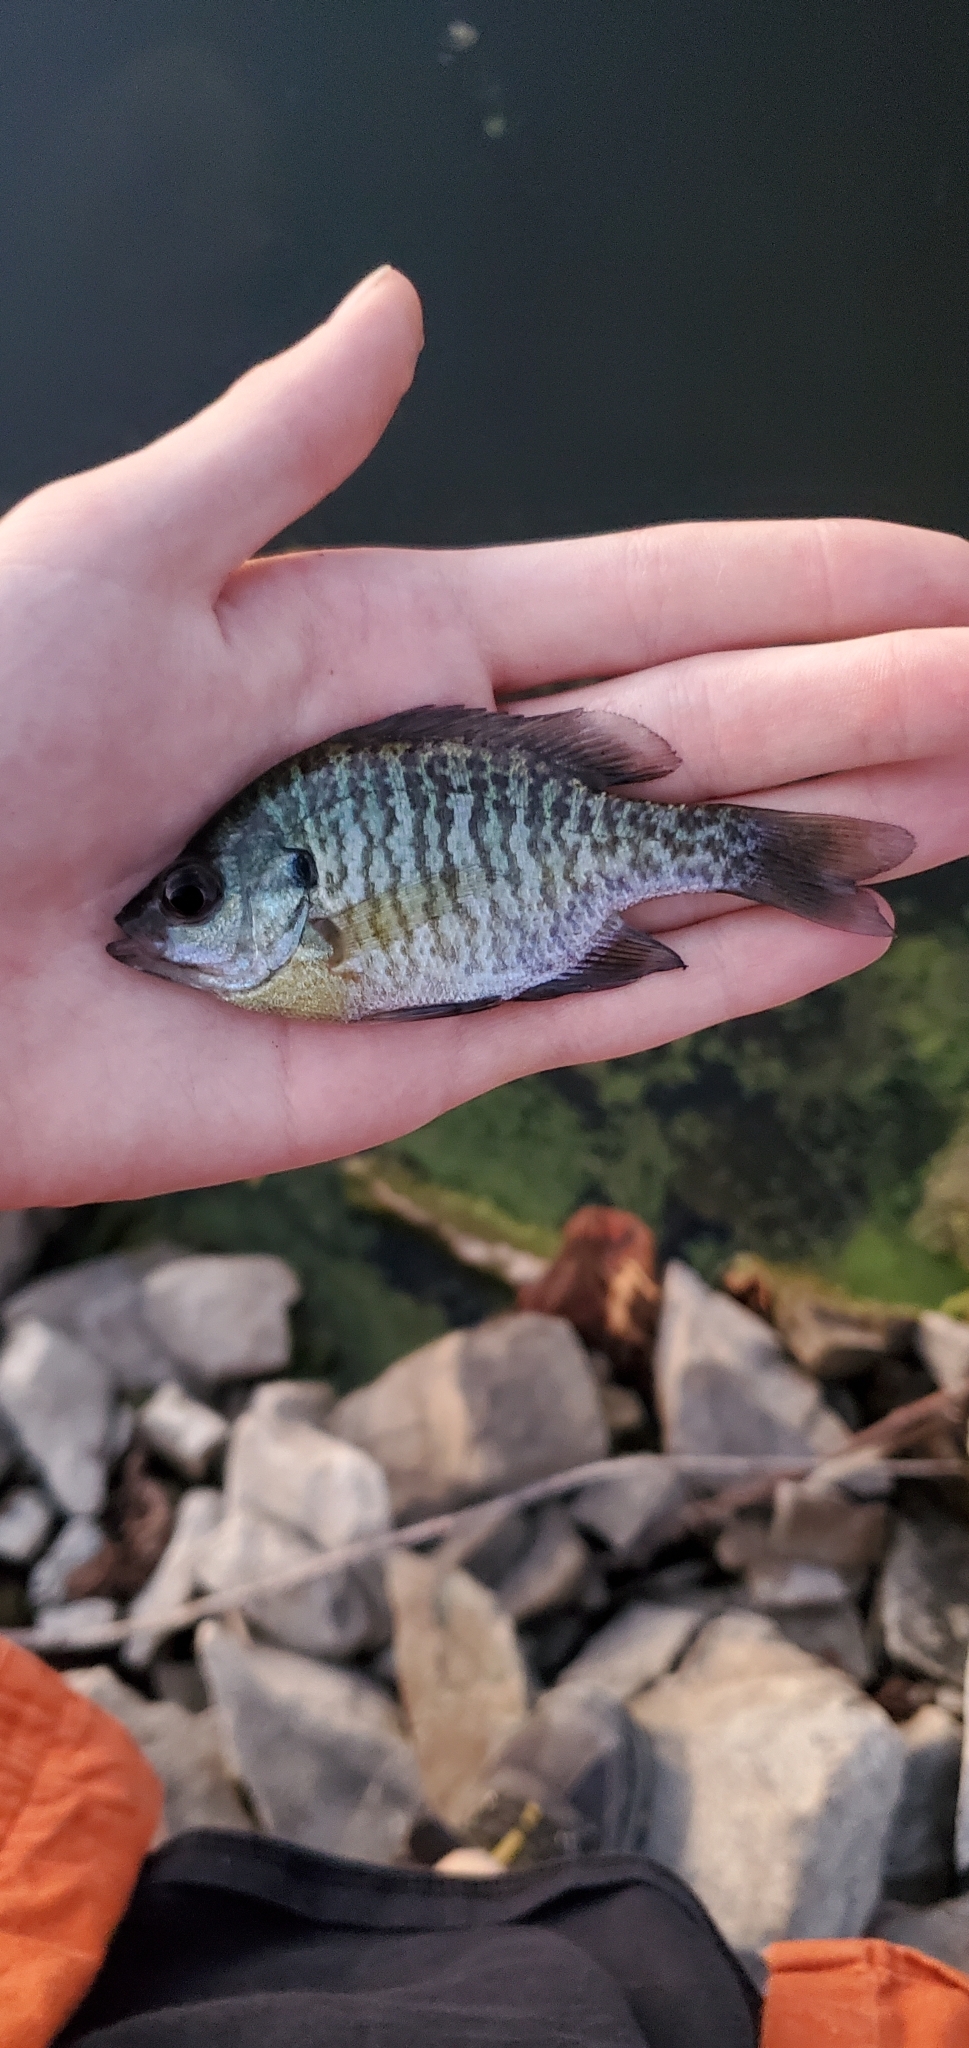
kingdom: Animalia
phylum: Chordata
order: Perciformes
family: Centrarchidae
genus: Lepomis
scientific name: Lepomis macrochirus
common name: Bluegill
